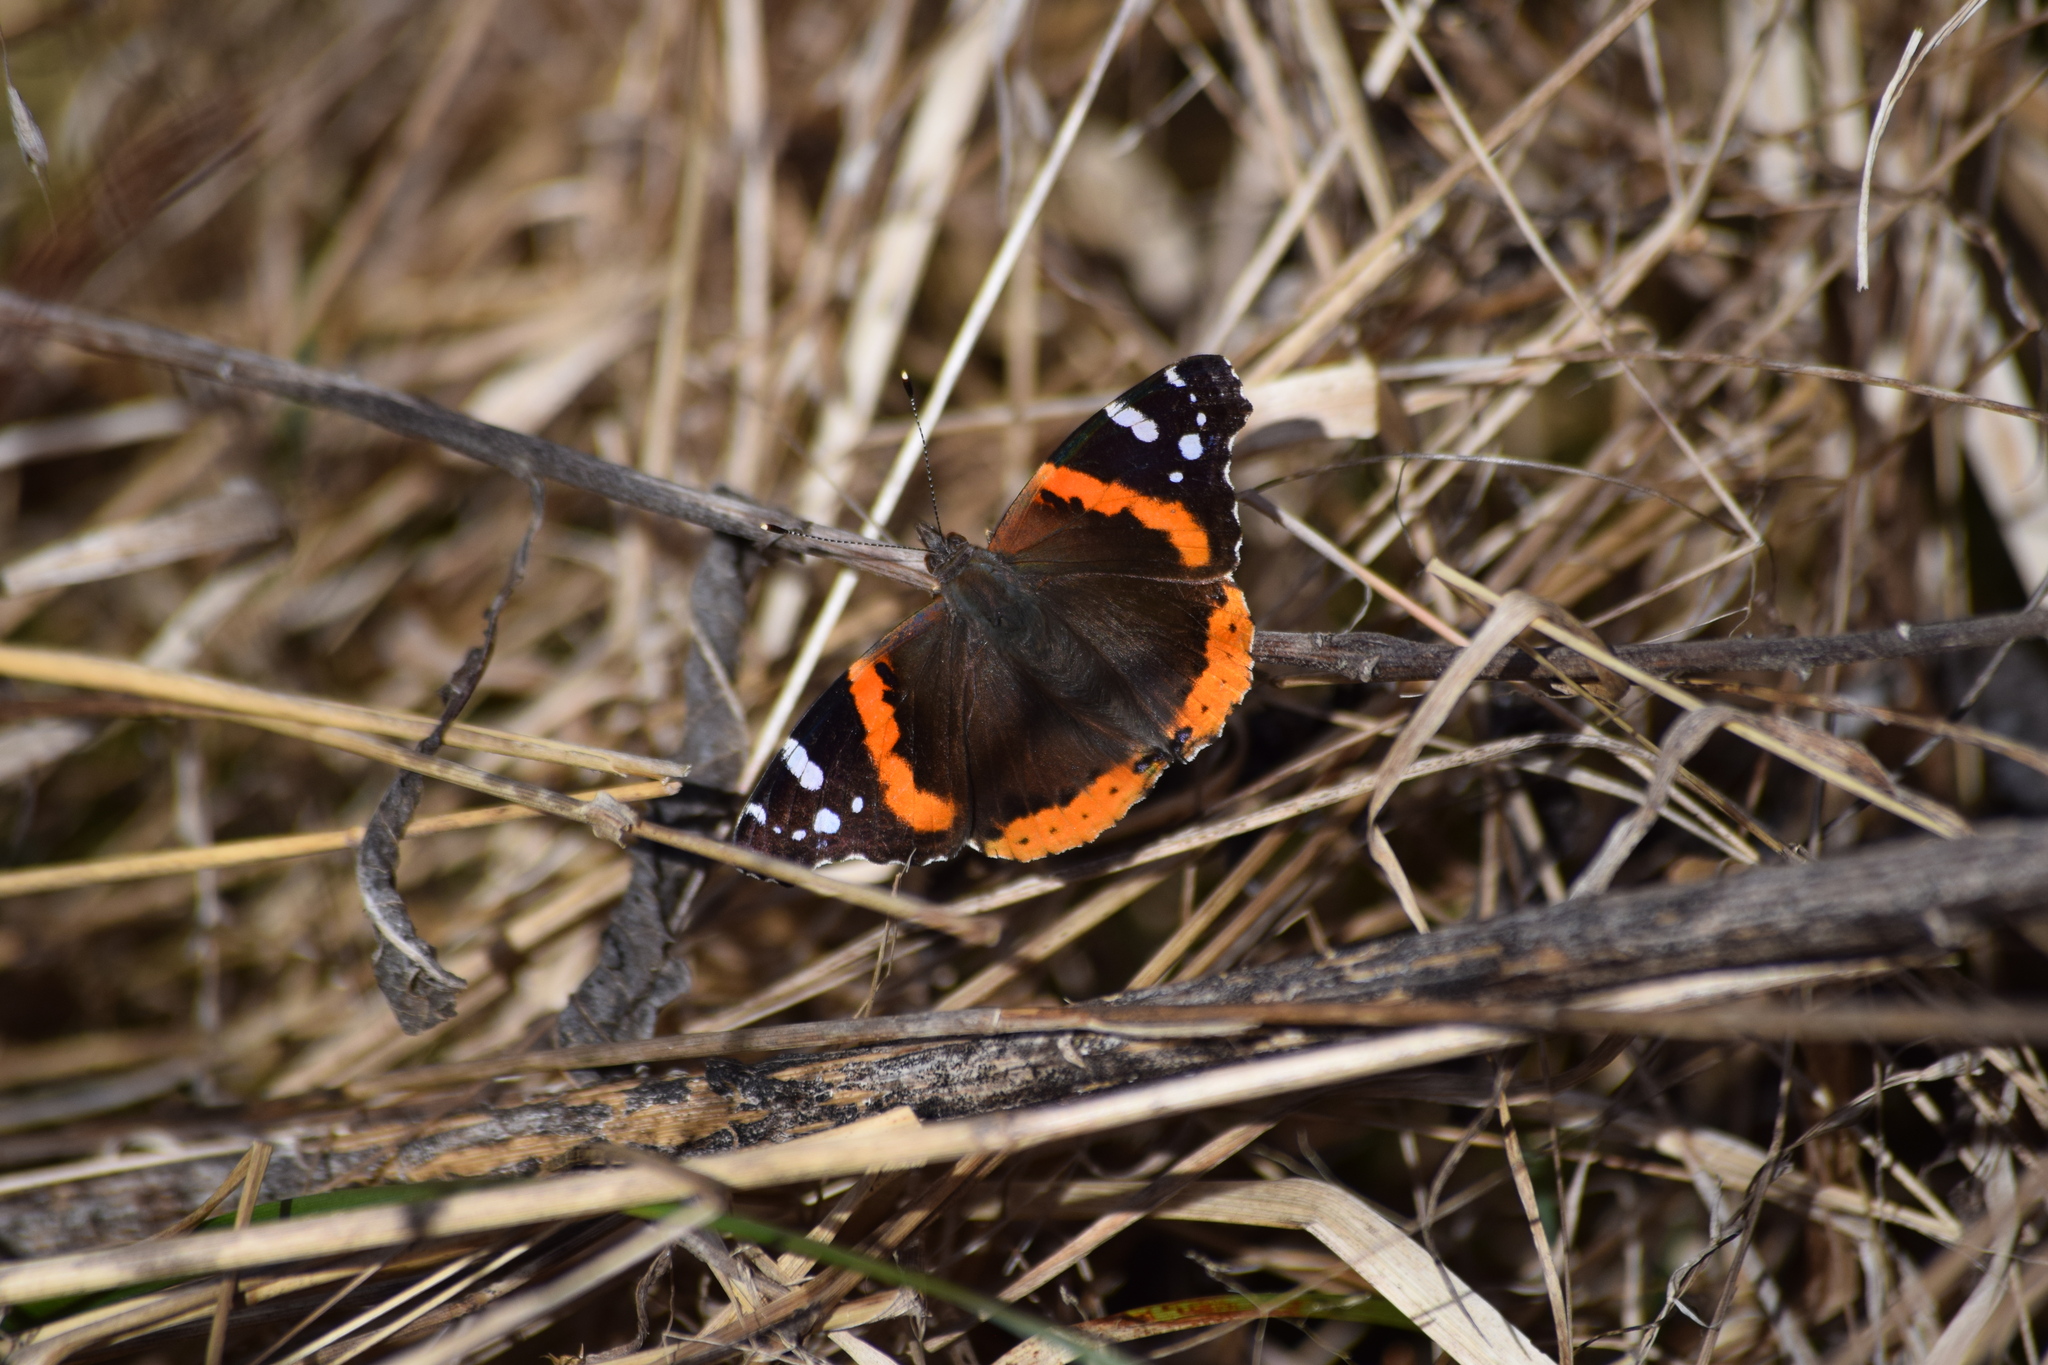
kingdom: Animalia
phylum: Arthropoda
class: Insecta
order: Lepidoptera
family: Nymphalidae
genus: Vanessa
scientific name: Vanessa atalanta
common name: Red admiral
